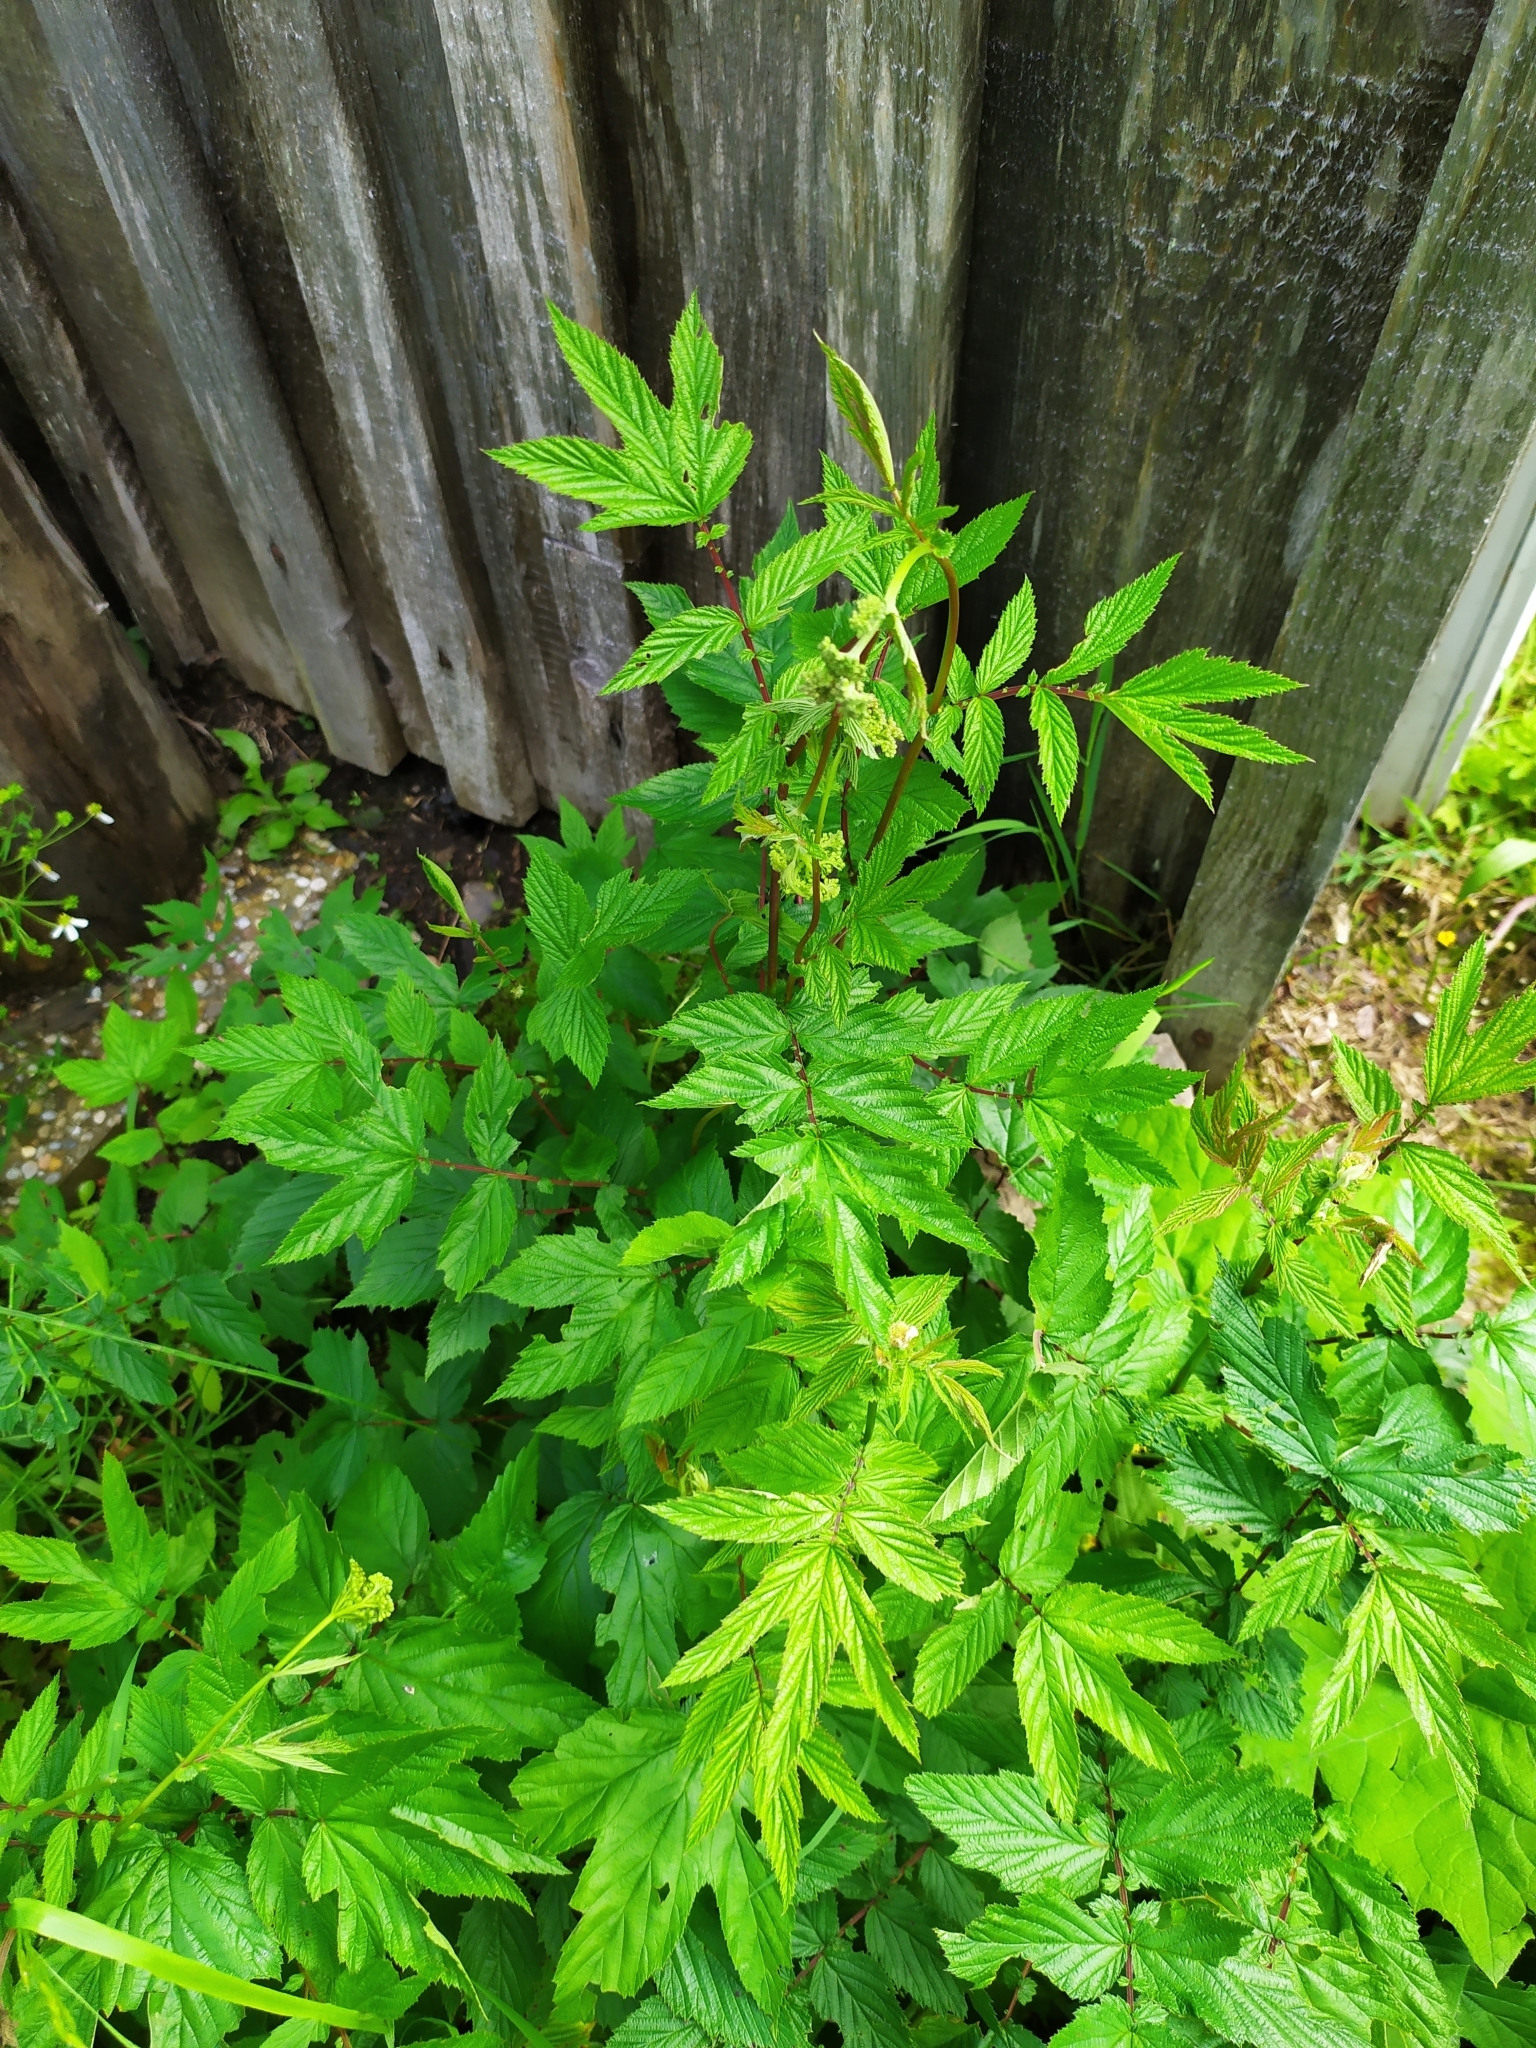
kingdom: Plantae
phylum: Tracheophyta
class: Magnoliopsida
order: Rosales
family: Rosaceae
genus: Filipendula
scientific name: Filipendula ulmaria
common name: Meadowsweet
